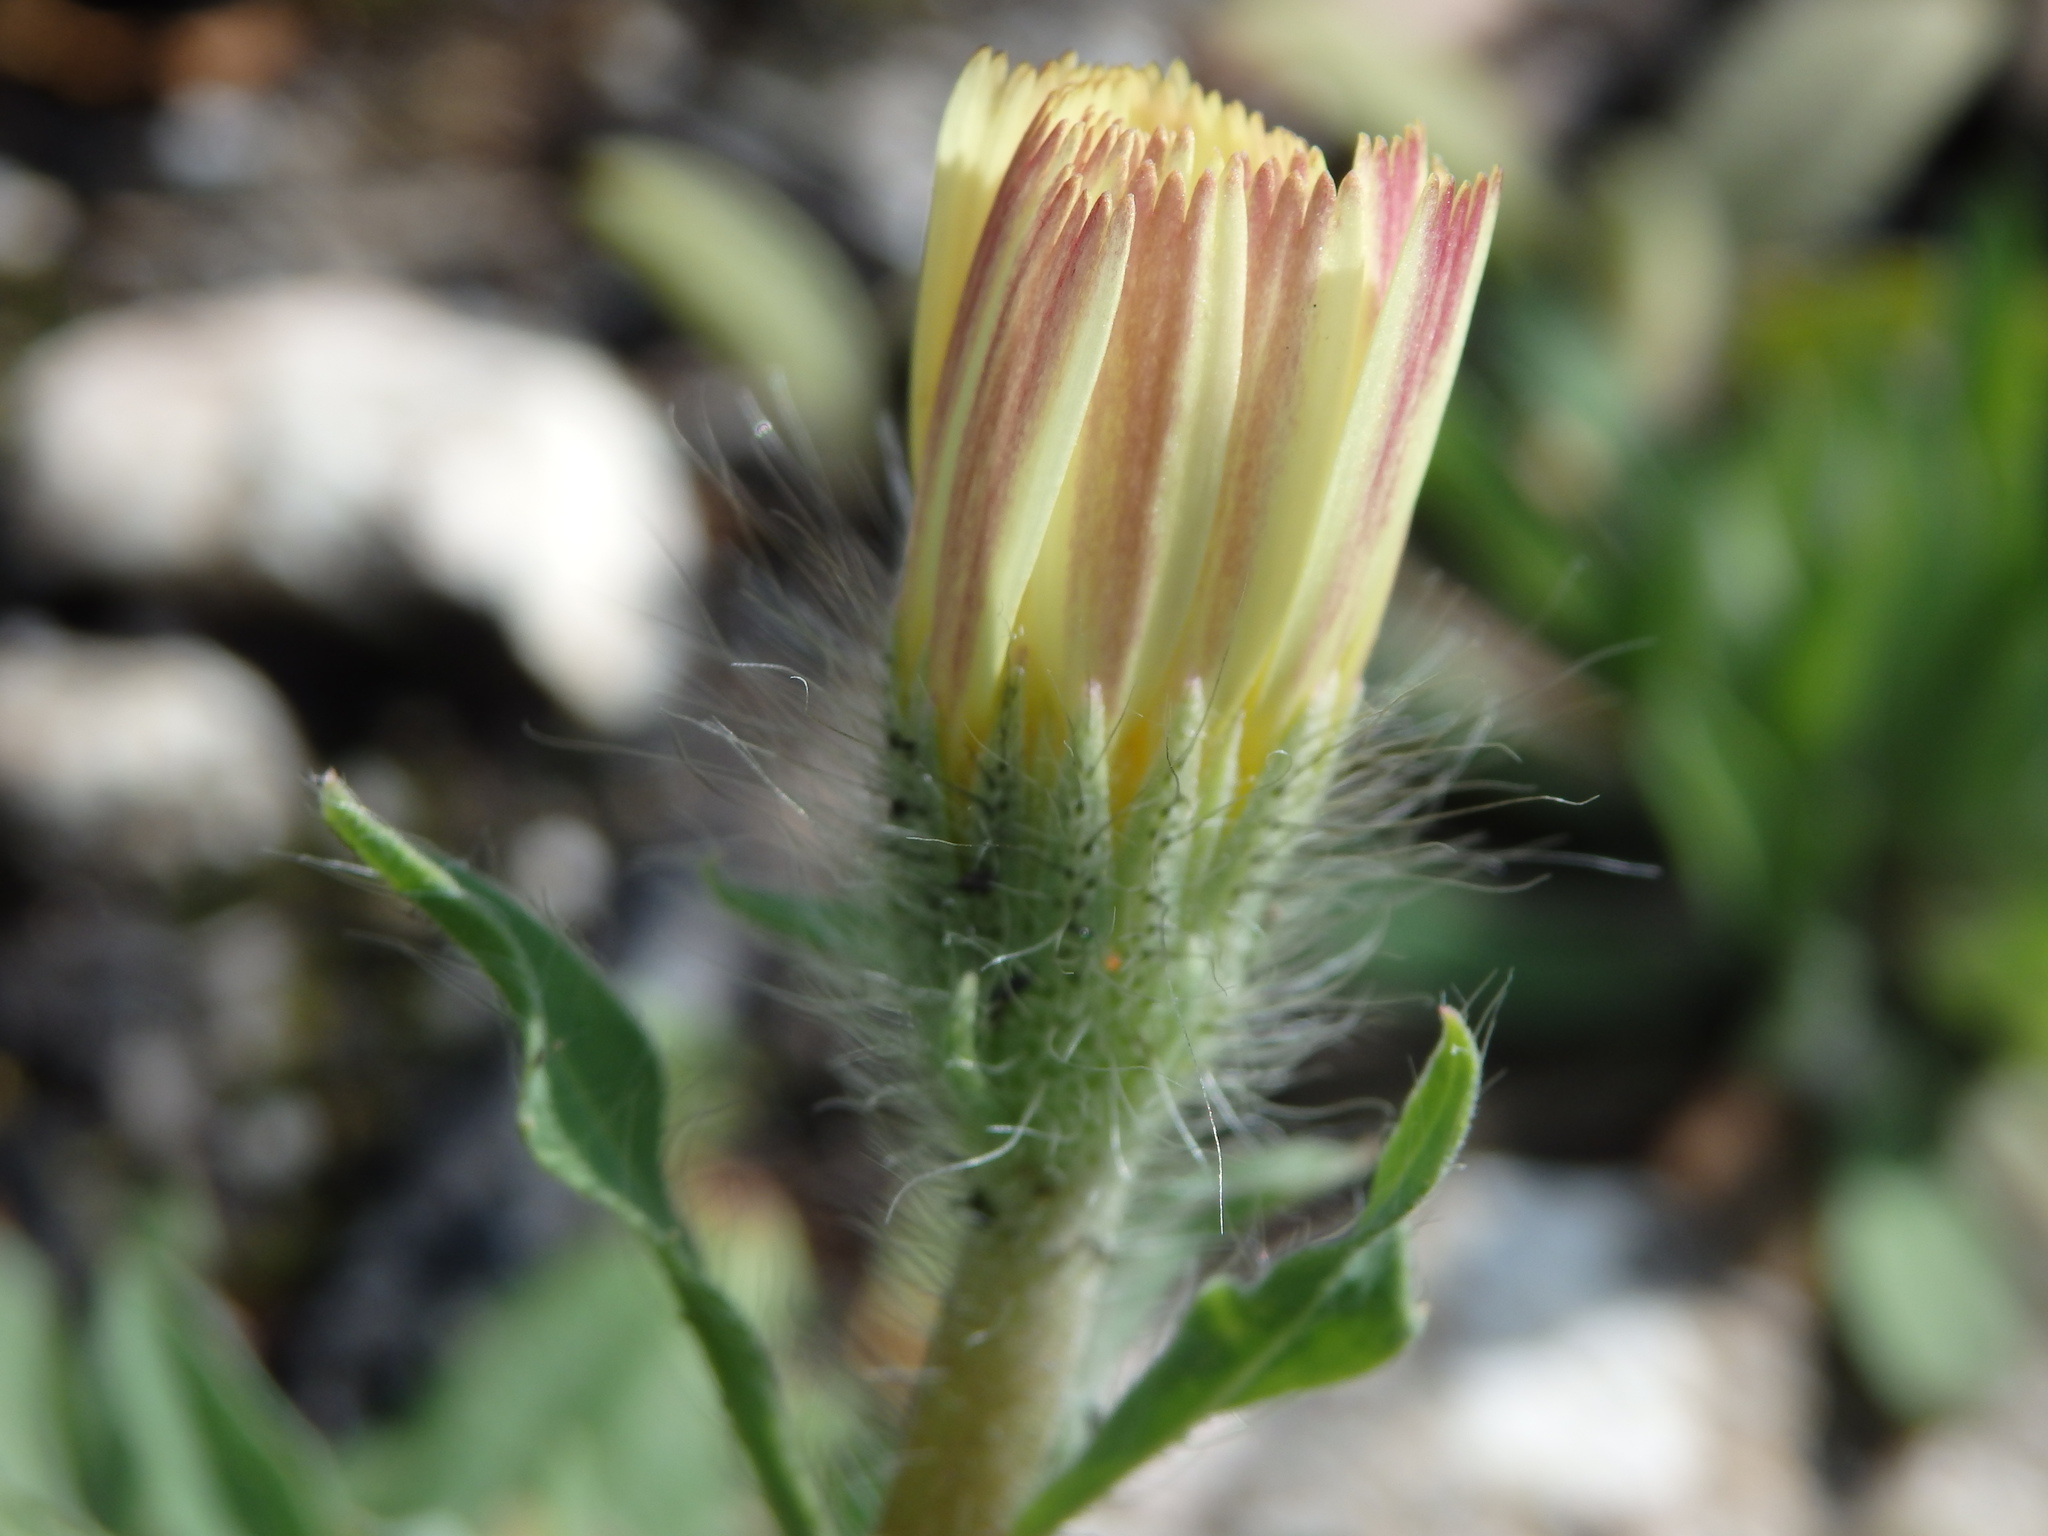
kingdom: Plantae
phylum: Tracheophyta
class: Magnoliopsida
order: Asterales
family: Asteraceae
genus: Hispidella
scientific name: Hispidella hispanica
